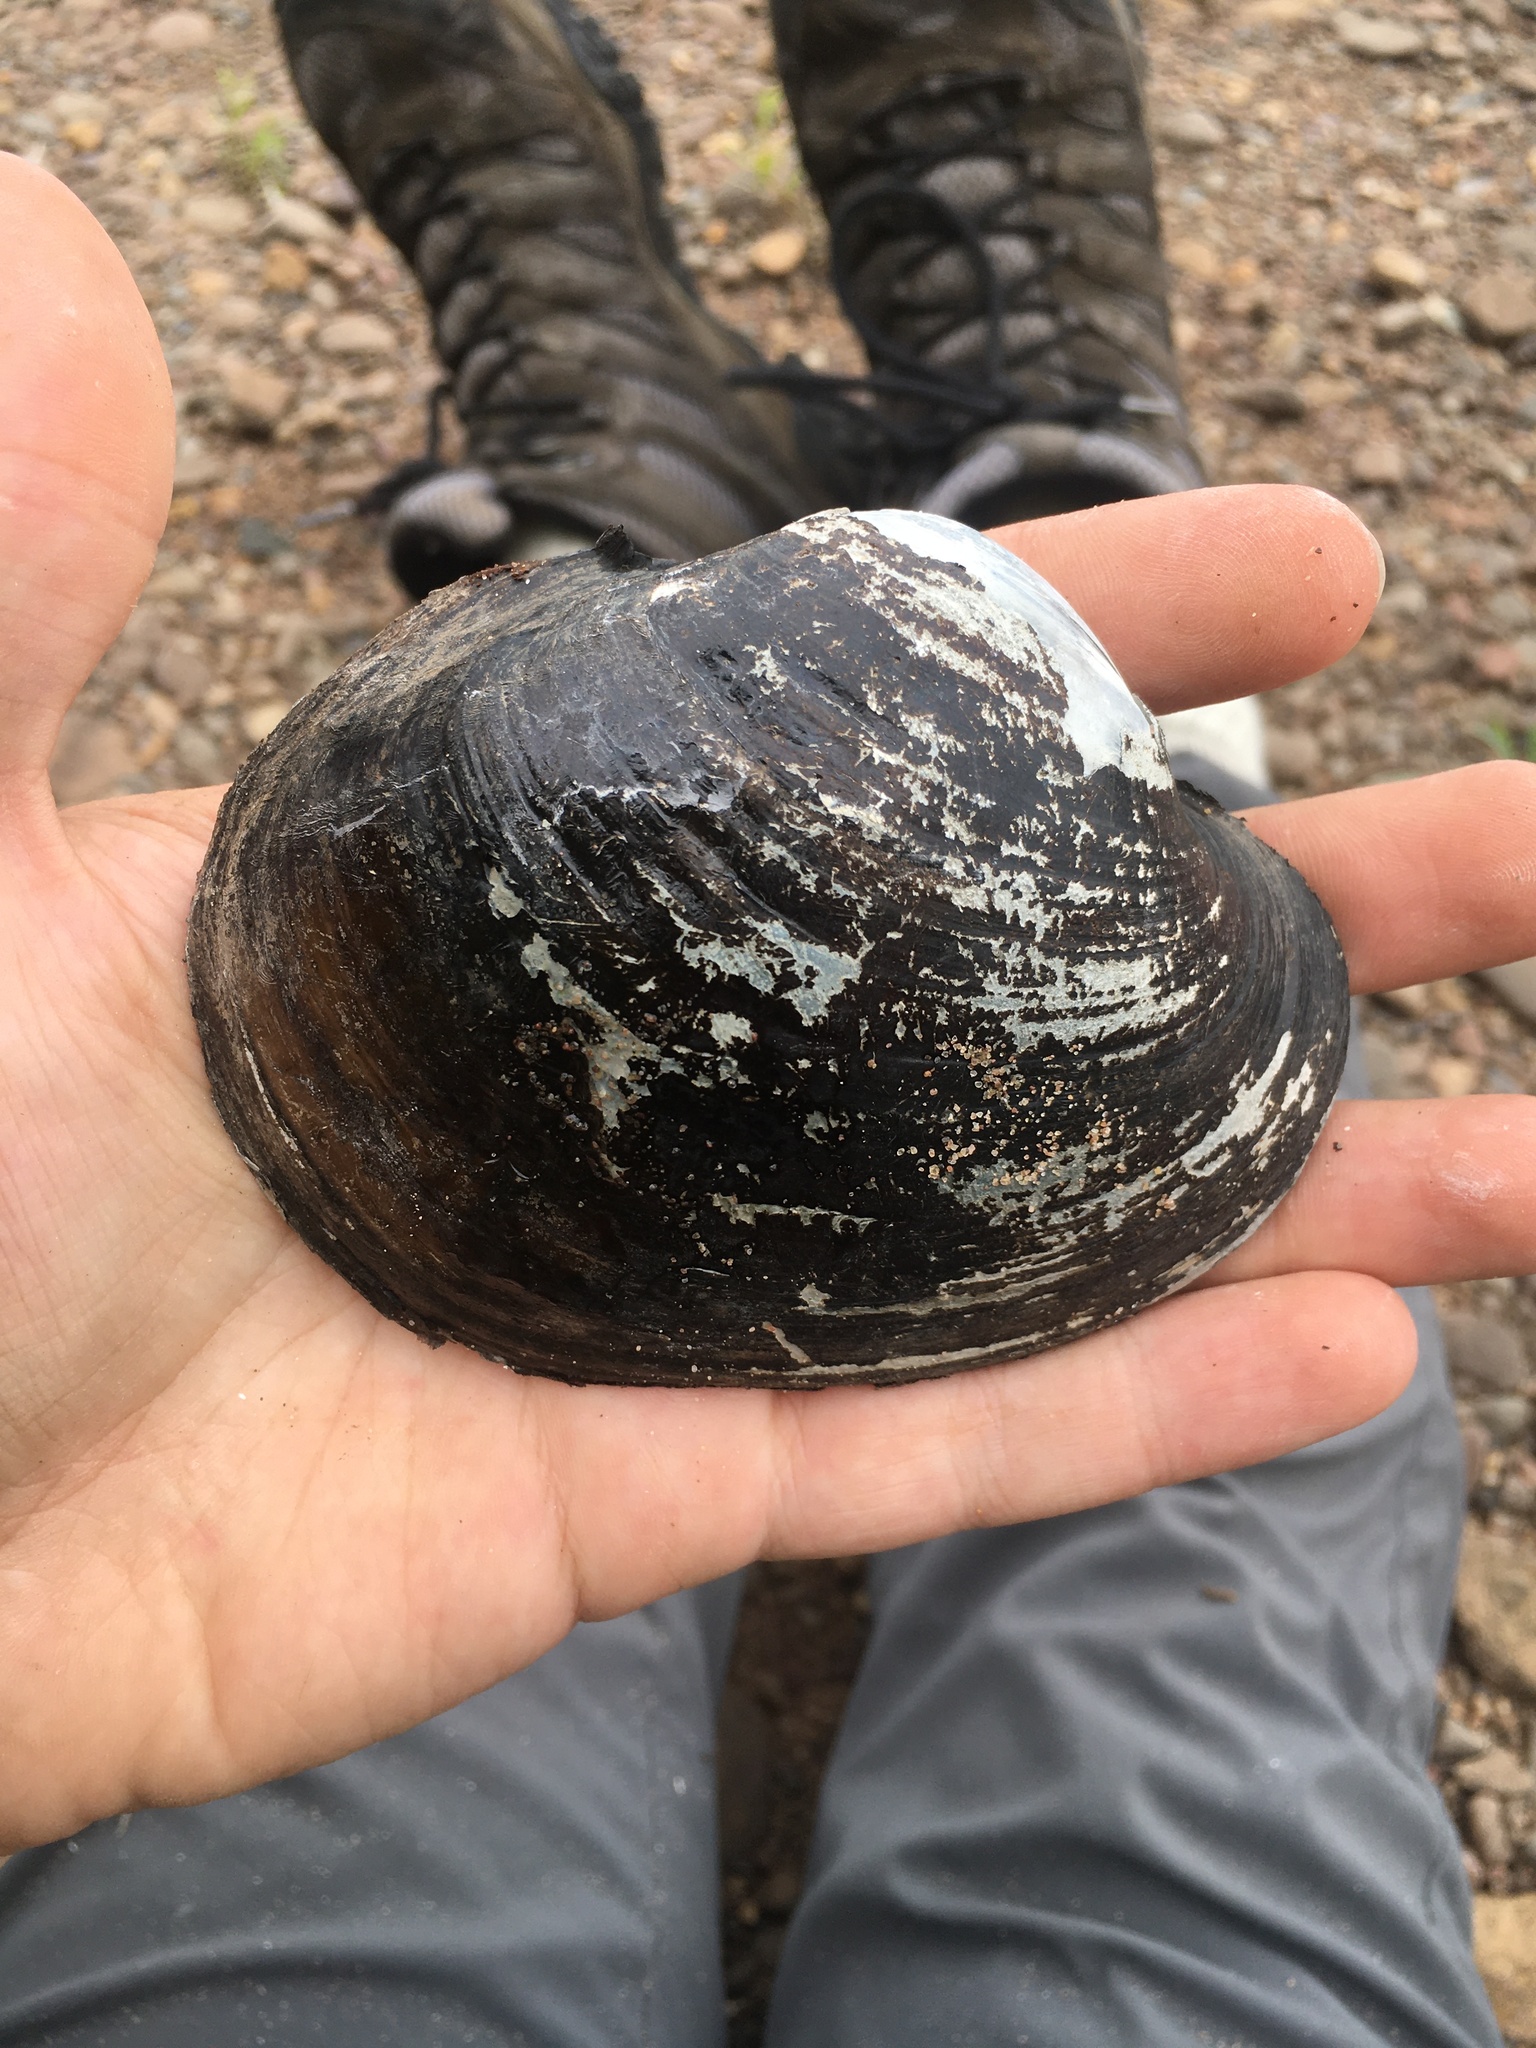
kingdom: Animalia
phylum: Mollusca
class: Bivalvia
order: Unionida
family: Unionidae
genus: Lampsilis
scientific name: Lampsilis cardium
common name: Plain pocketbook
